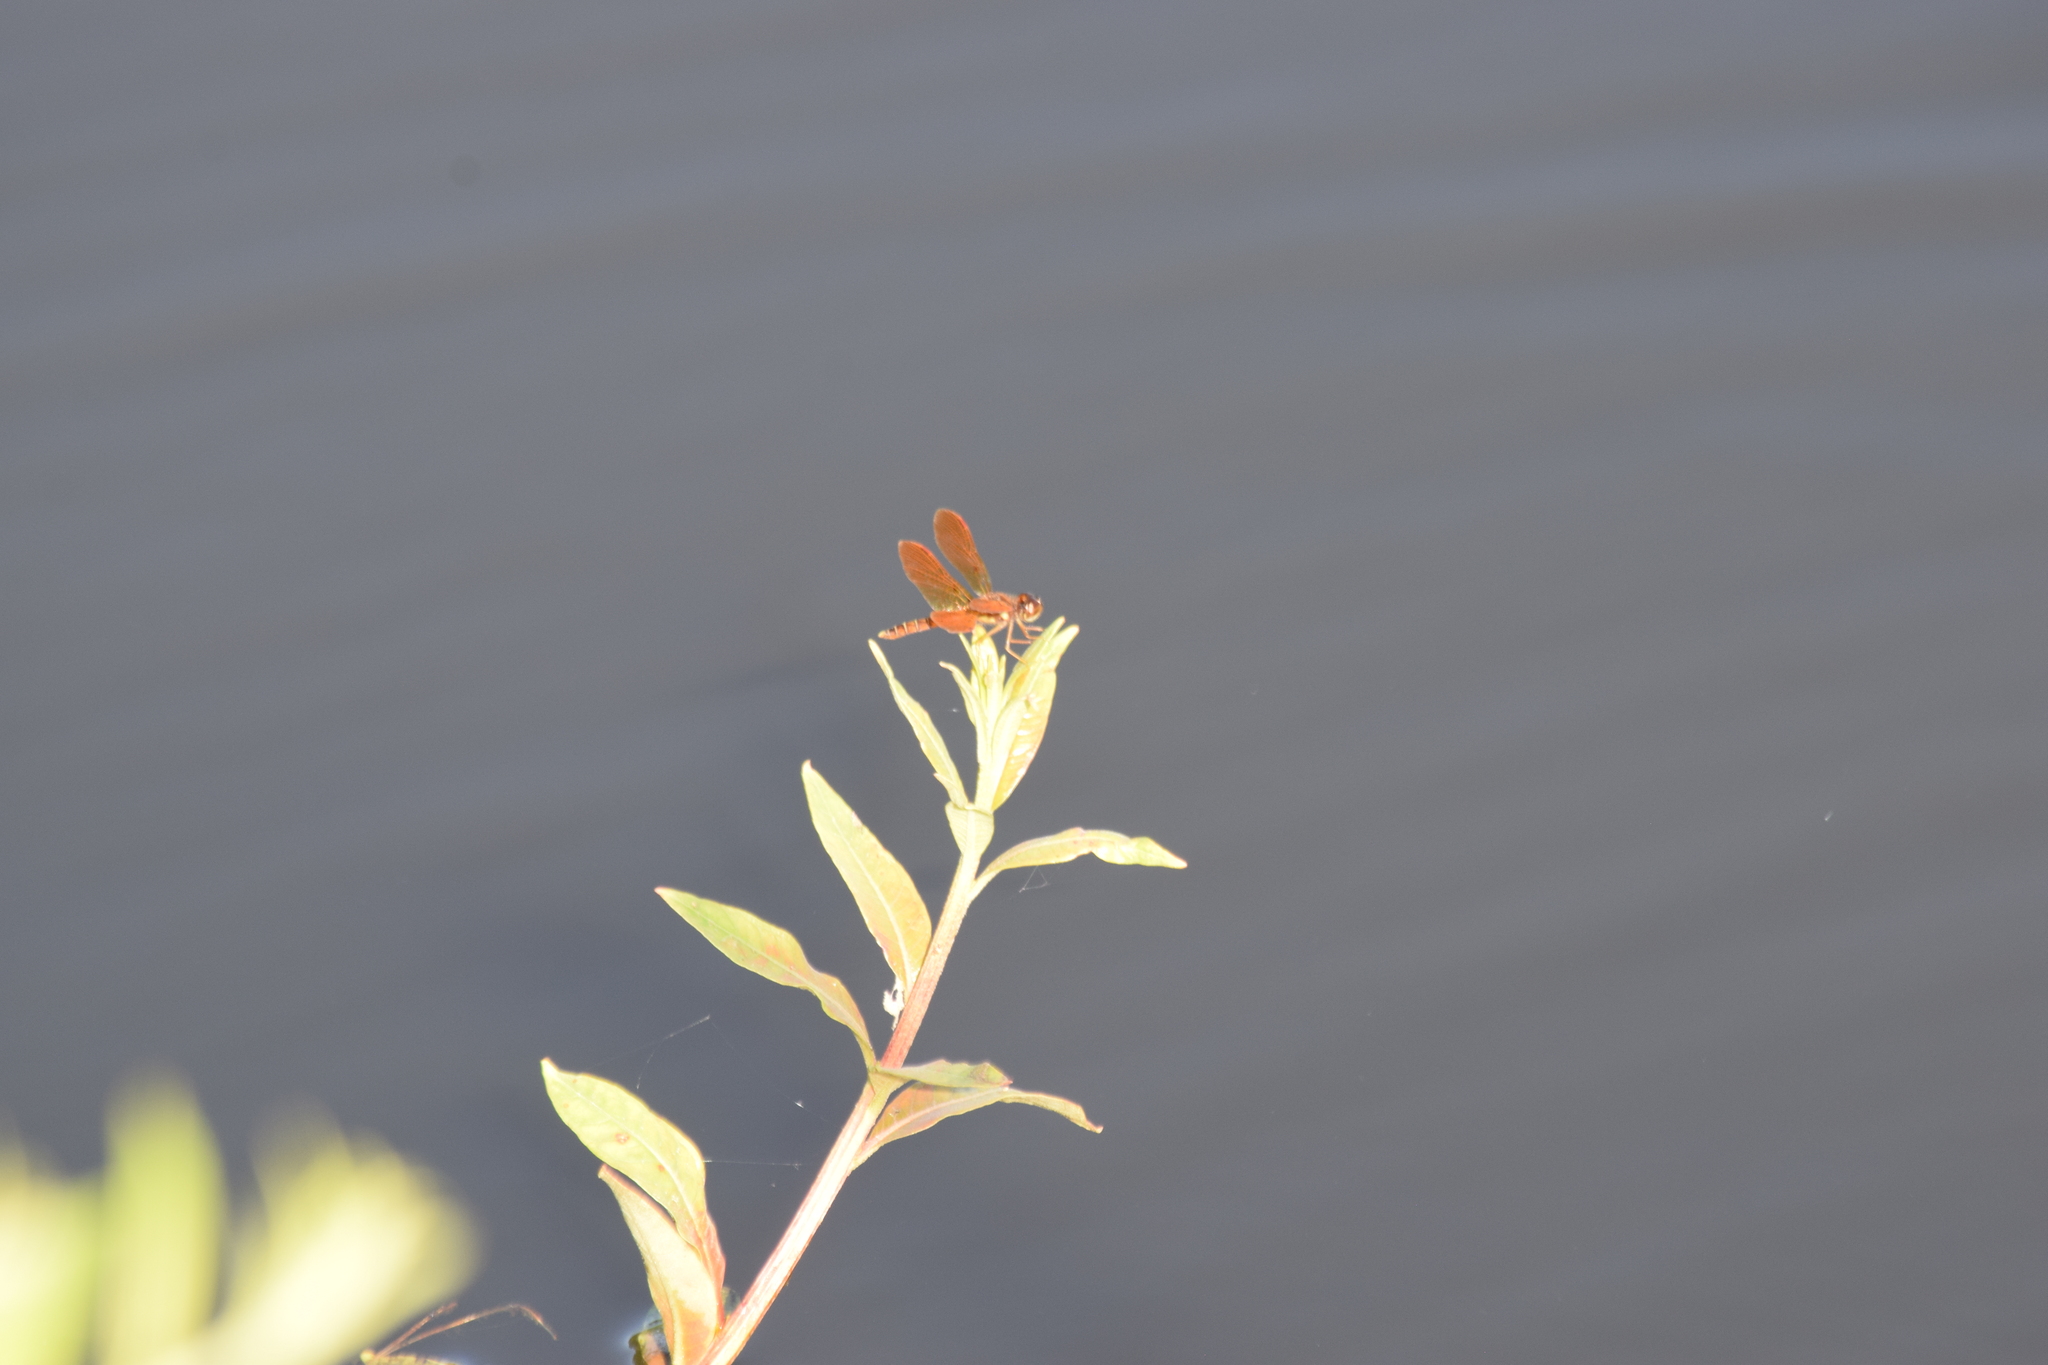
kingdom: Animalia
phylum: Arthropoda
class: Insecta
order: Odonata
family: Libellulidae
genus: Perithemis
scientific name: Perithemis tenera
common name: Eastern amberwing
